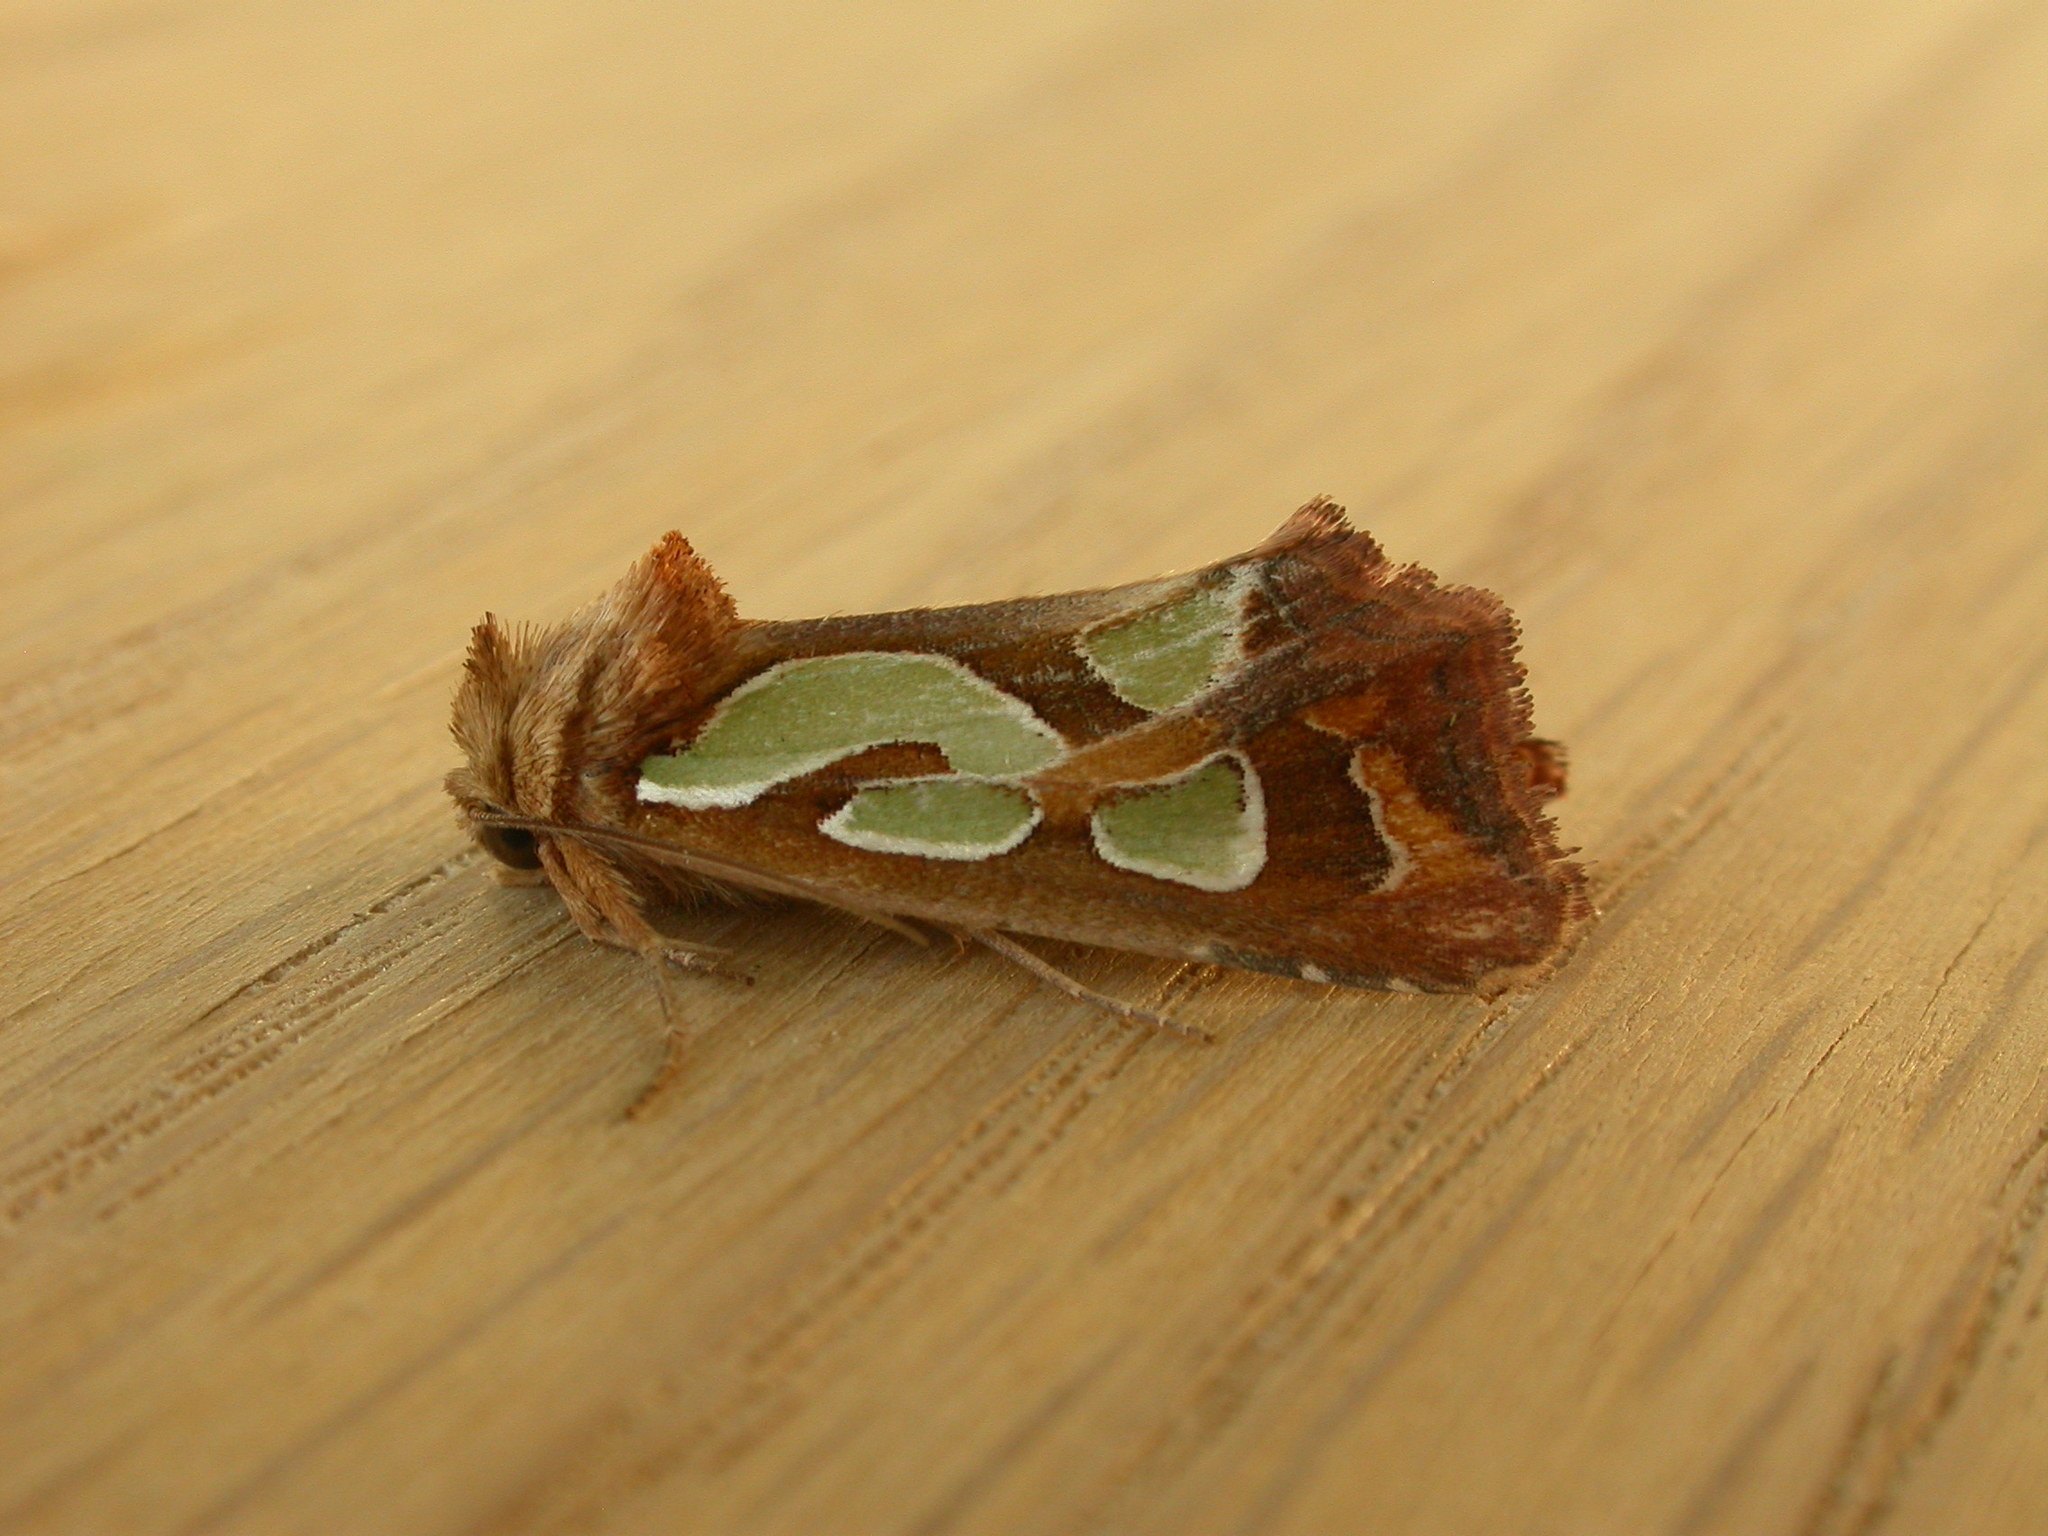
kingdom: Animalia
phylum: Arthropoda
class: Insecta
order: Lepidoptera
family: Noctuidae
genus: Cosmodes
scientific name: Cosmodes elegans
